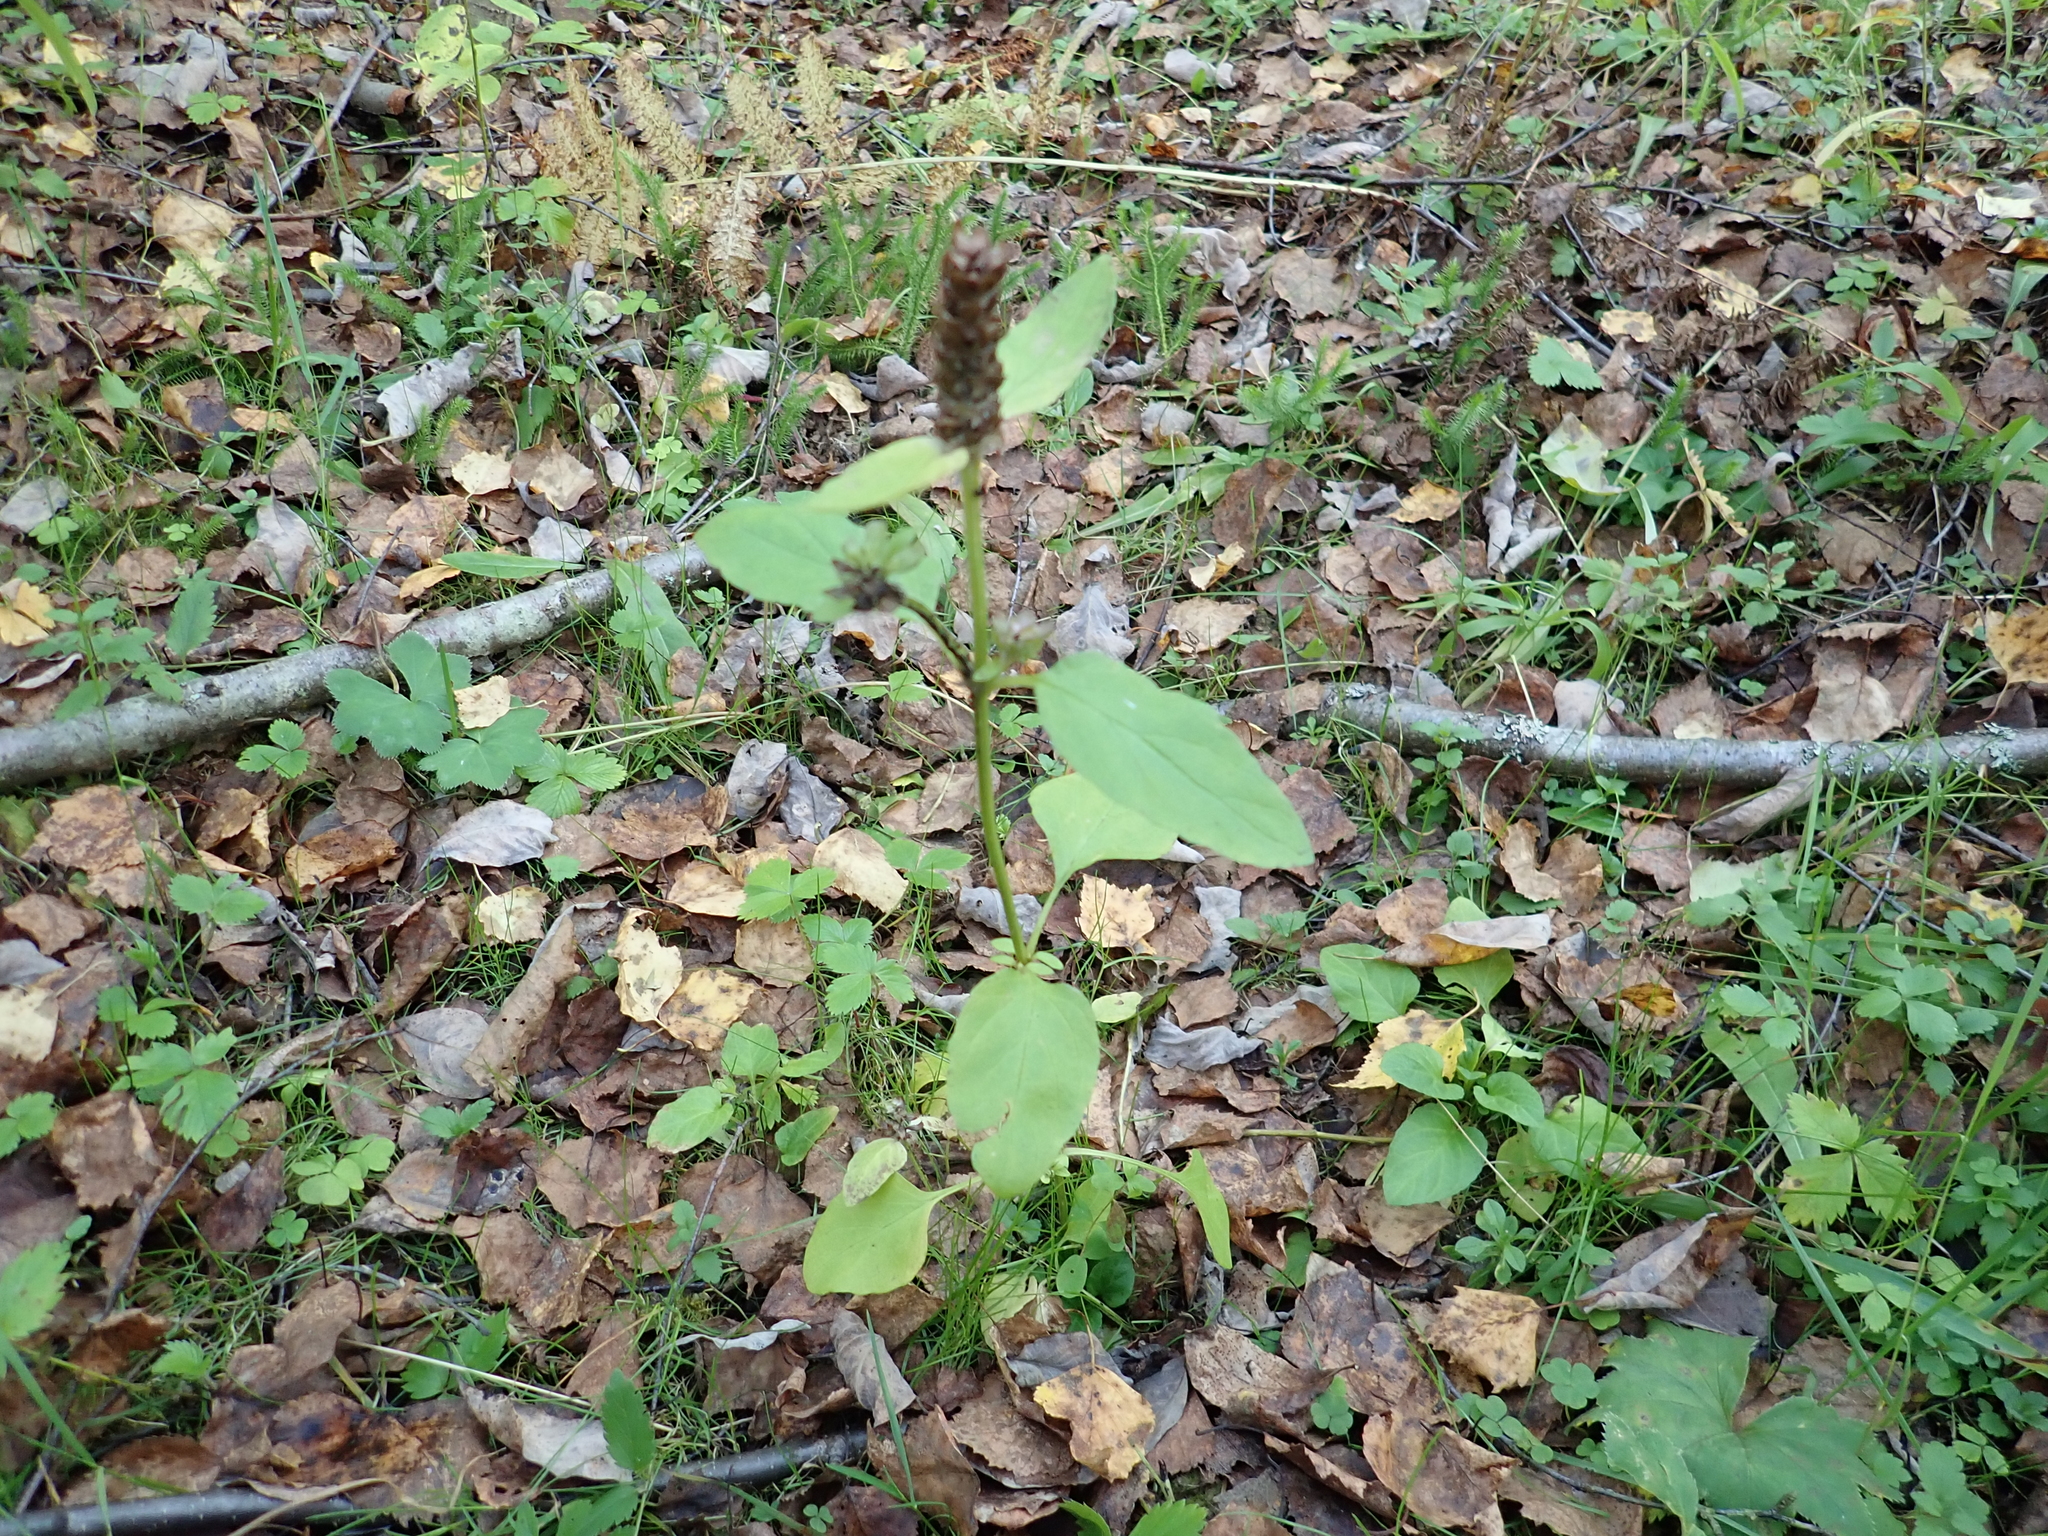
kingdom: Plantae
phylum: Tracheophyta
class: Magnoliopsida
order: Lamiales
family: Lamiaceae
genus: Prunella
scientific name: Prunella vulgaris
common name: Heal-all
